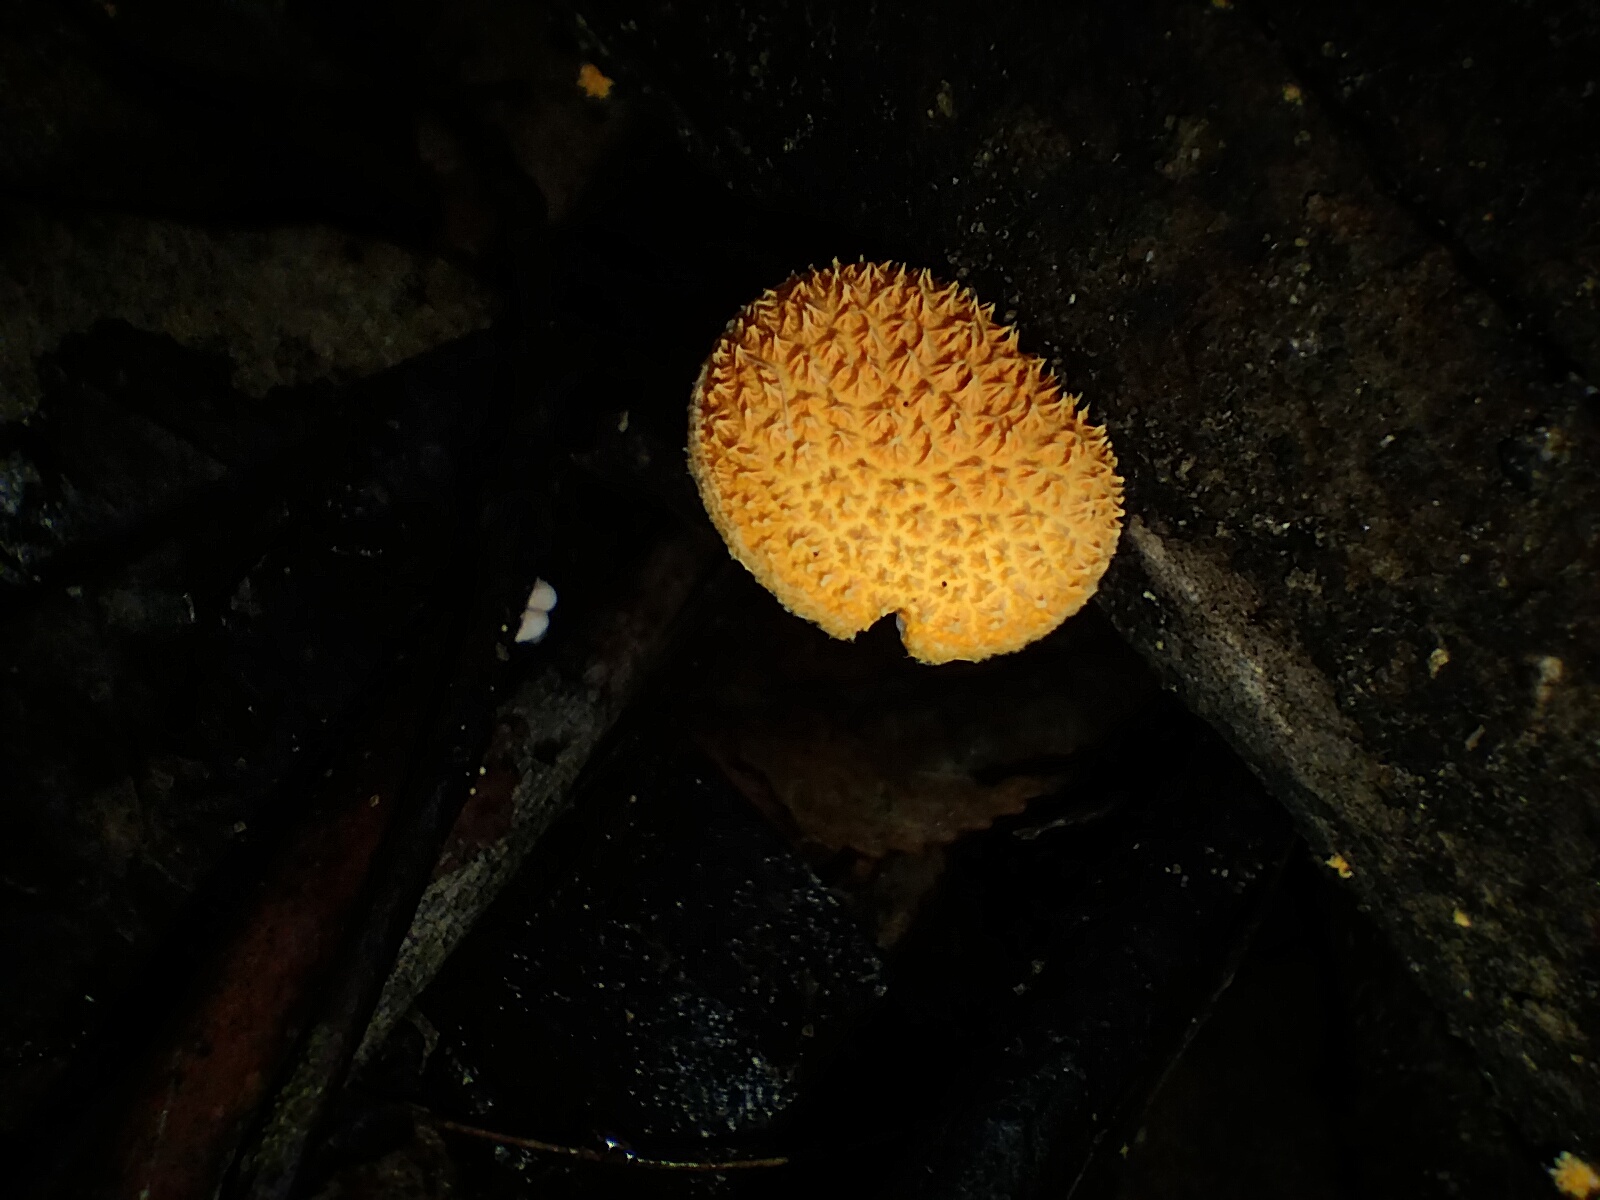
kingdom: Fungi
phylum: Basidiomycota
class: Agaricomycetes
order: Agaricales
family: Physalacriaceae
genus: Cyptotrama
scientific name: Cyptotrama asprata
